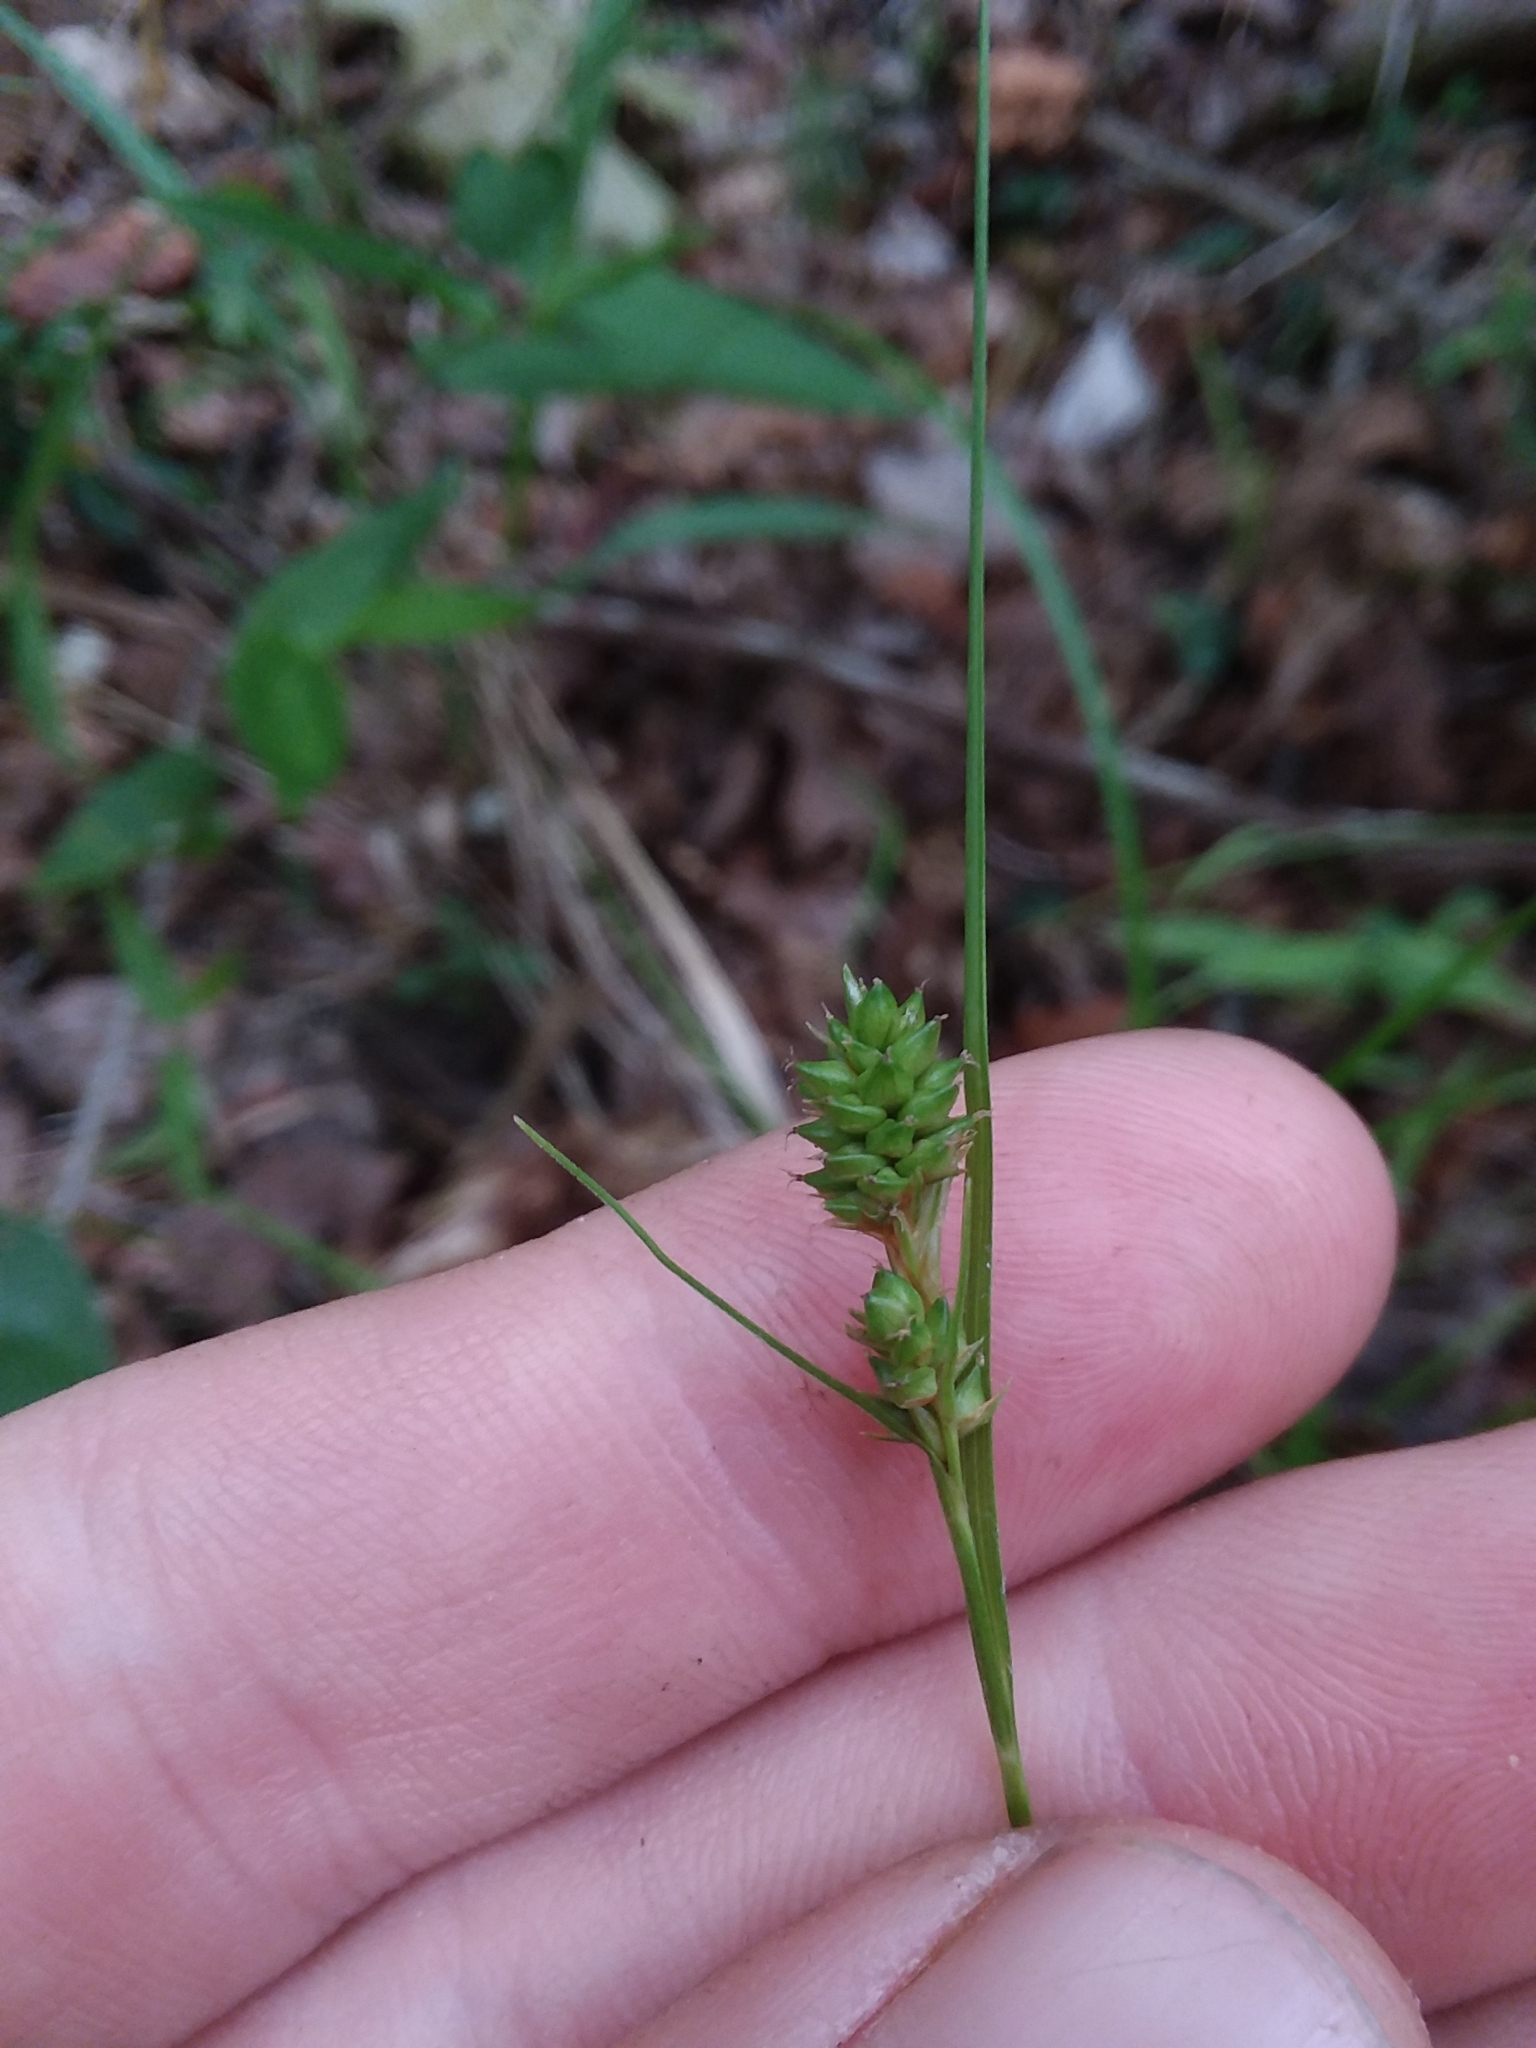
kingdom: Plantae
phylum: Tracheophyta
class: Liliopsida
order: Poales
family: Cyperaceae
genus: Carex
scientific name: Carex complanata
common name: Hirsute sedge
